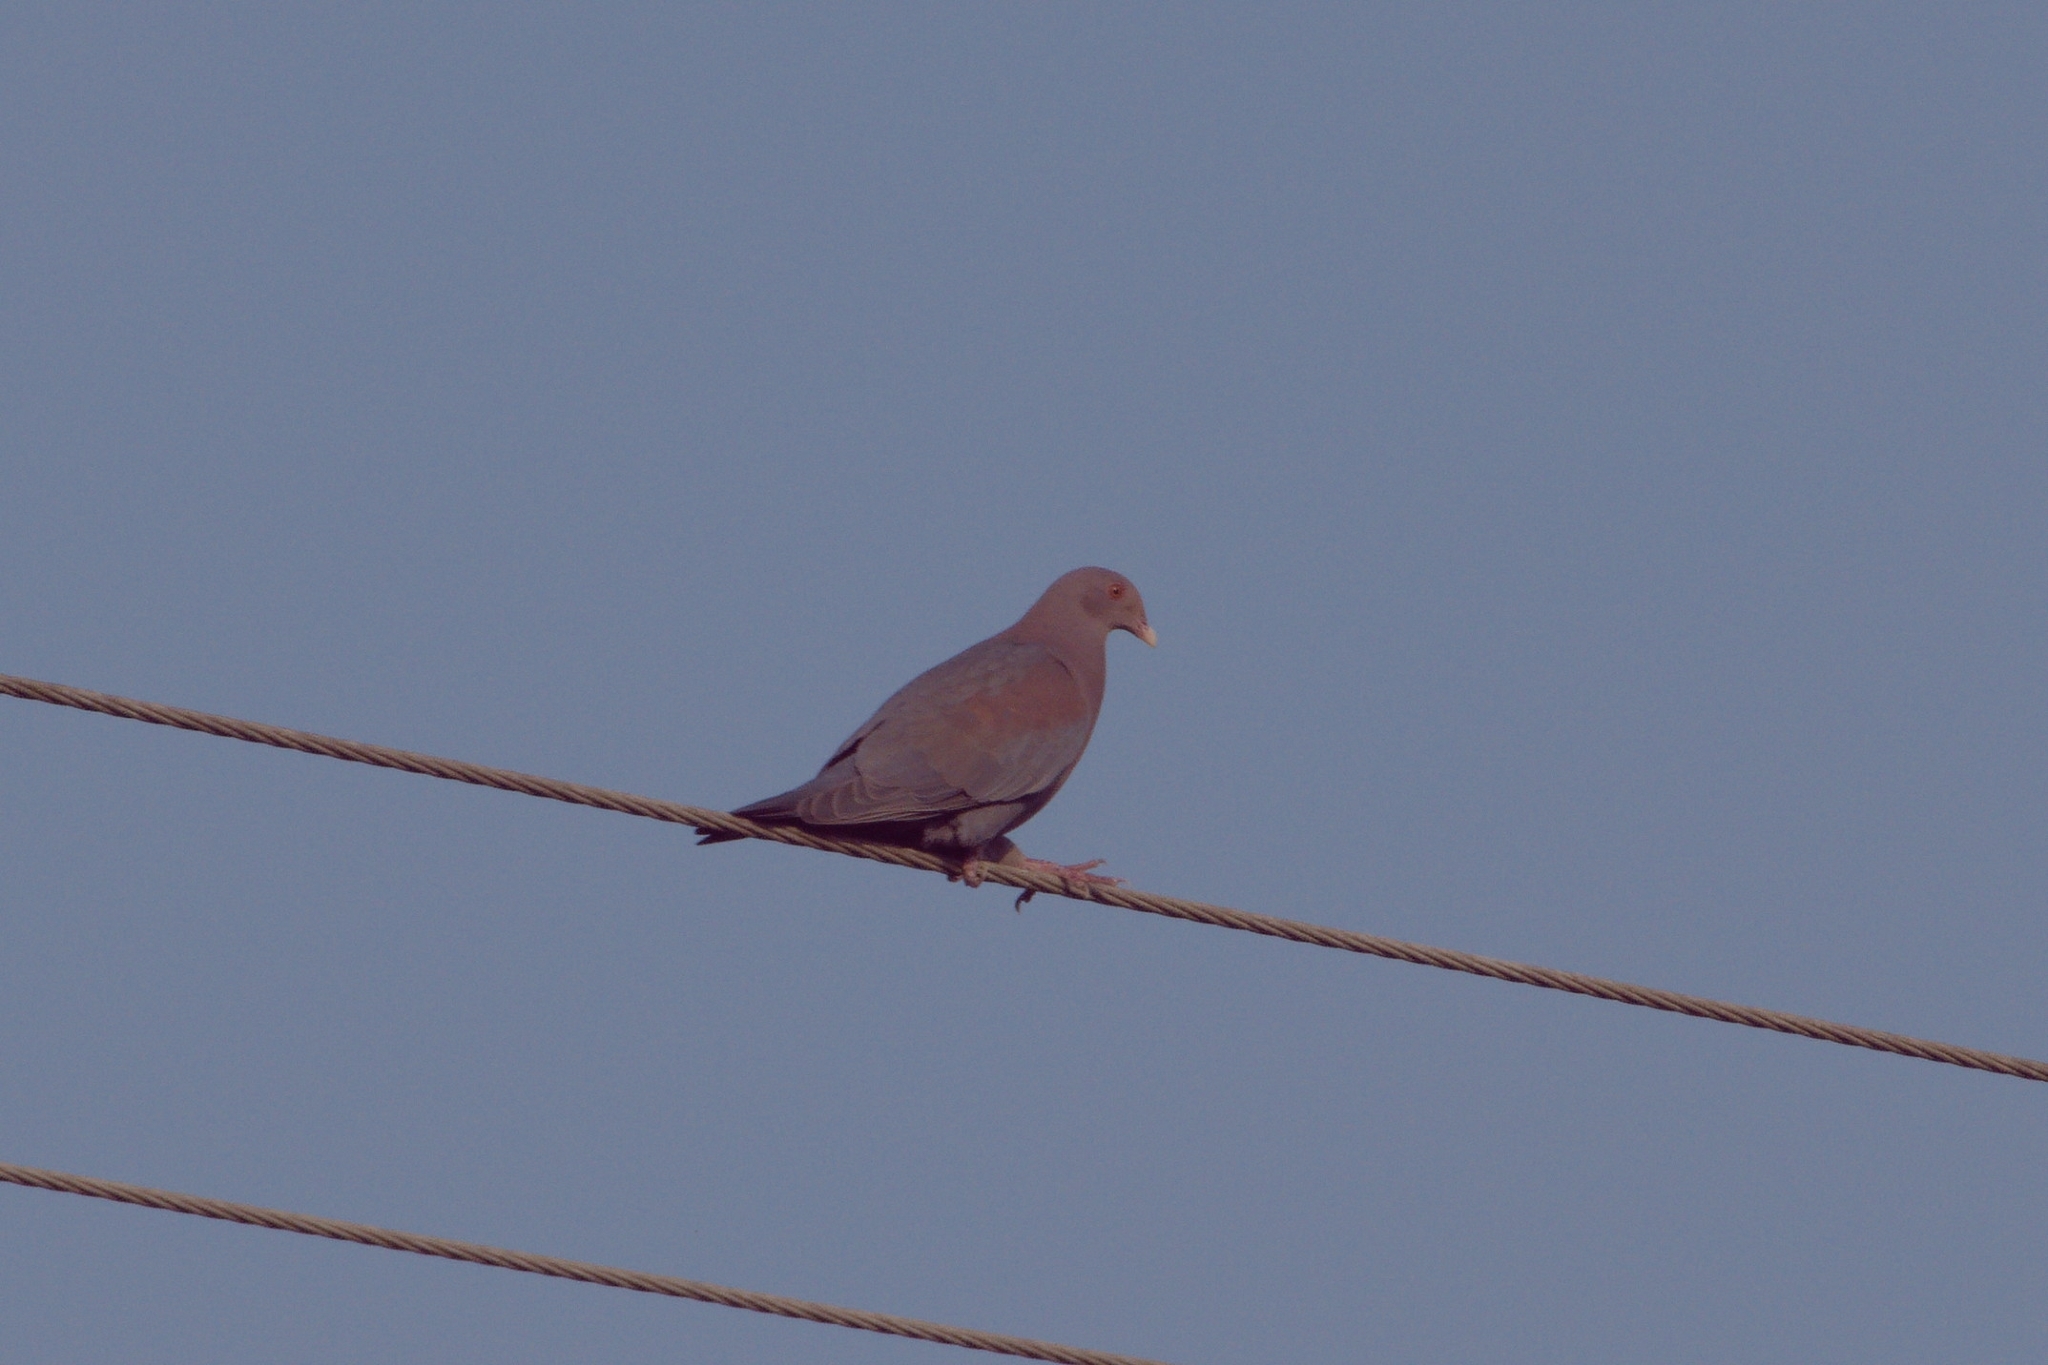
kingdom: Animalia
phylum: Chordata
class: Aves
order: Columbiformes
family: Columbidae
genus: Patagioenas
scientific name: Patagioenas flavirostris
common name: Red-billed pigeon
